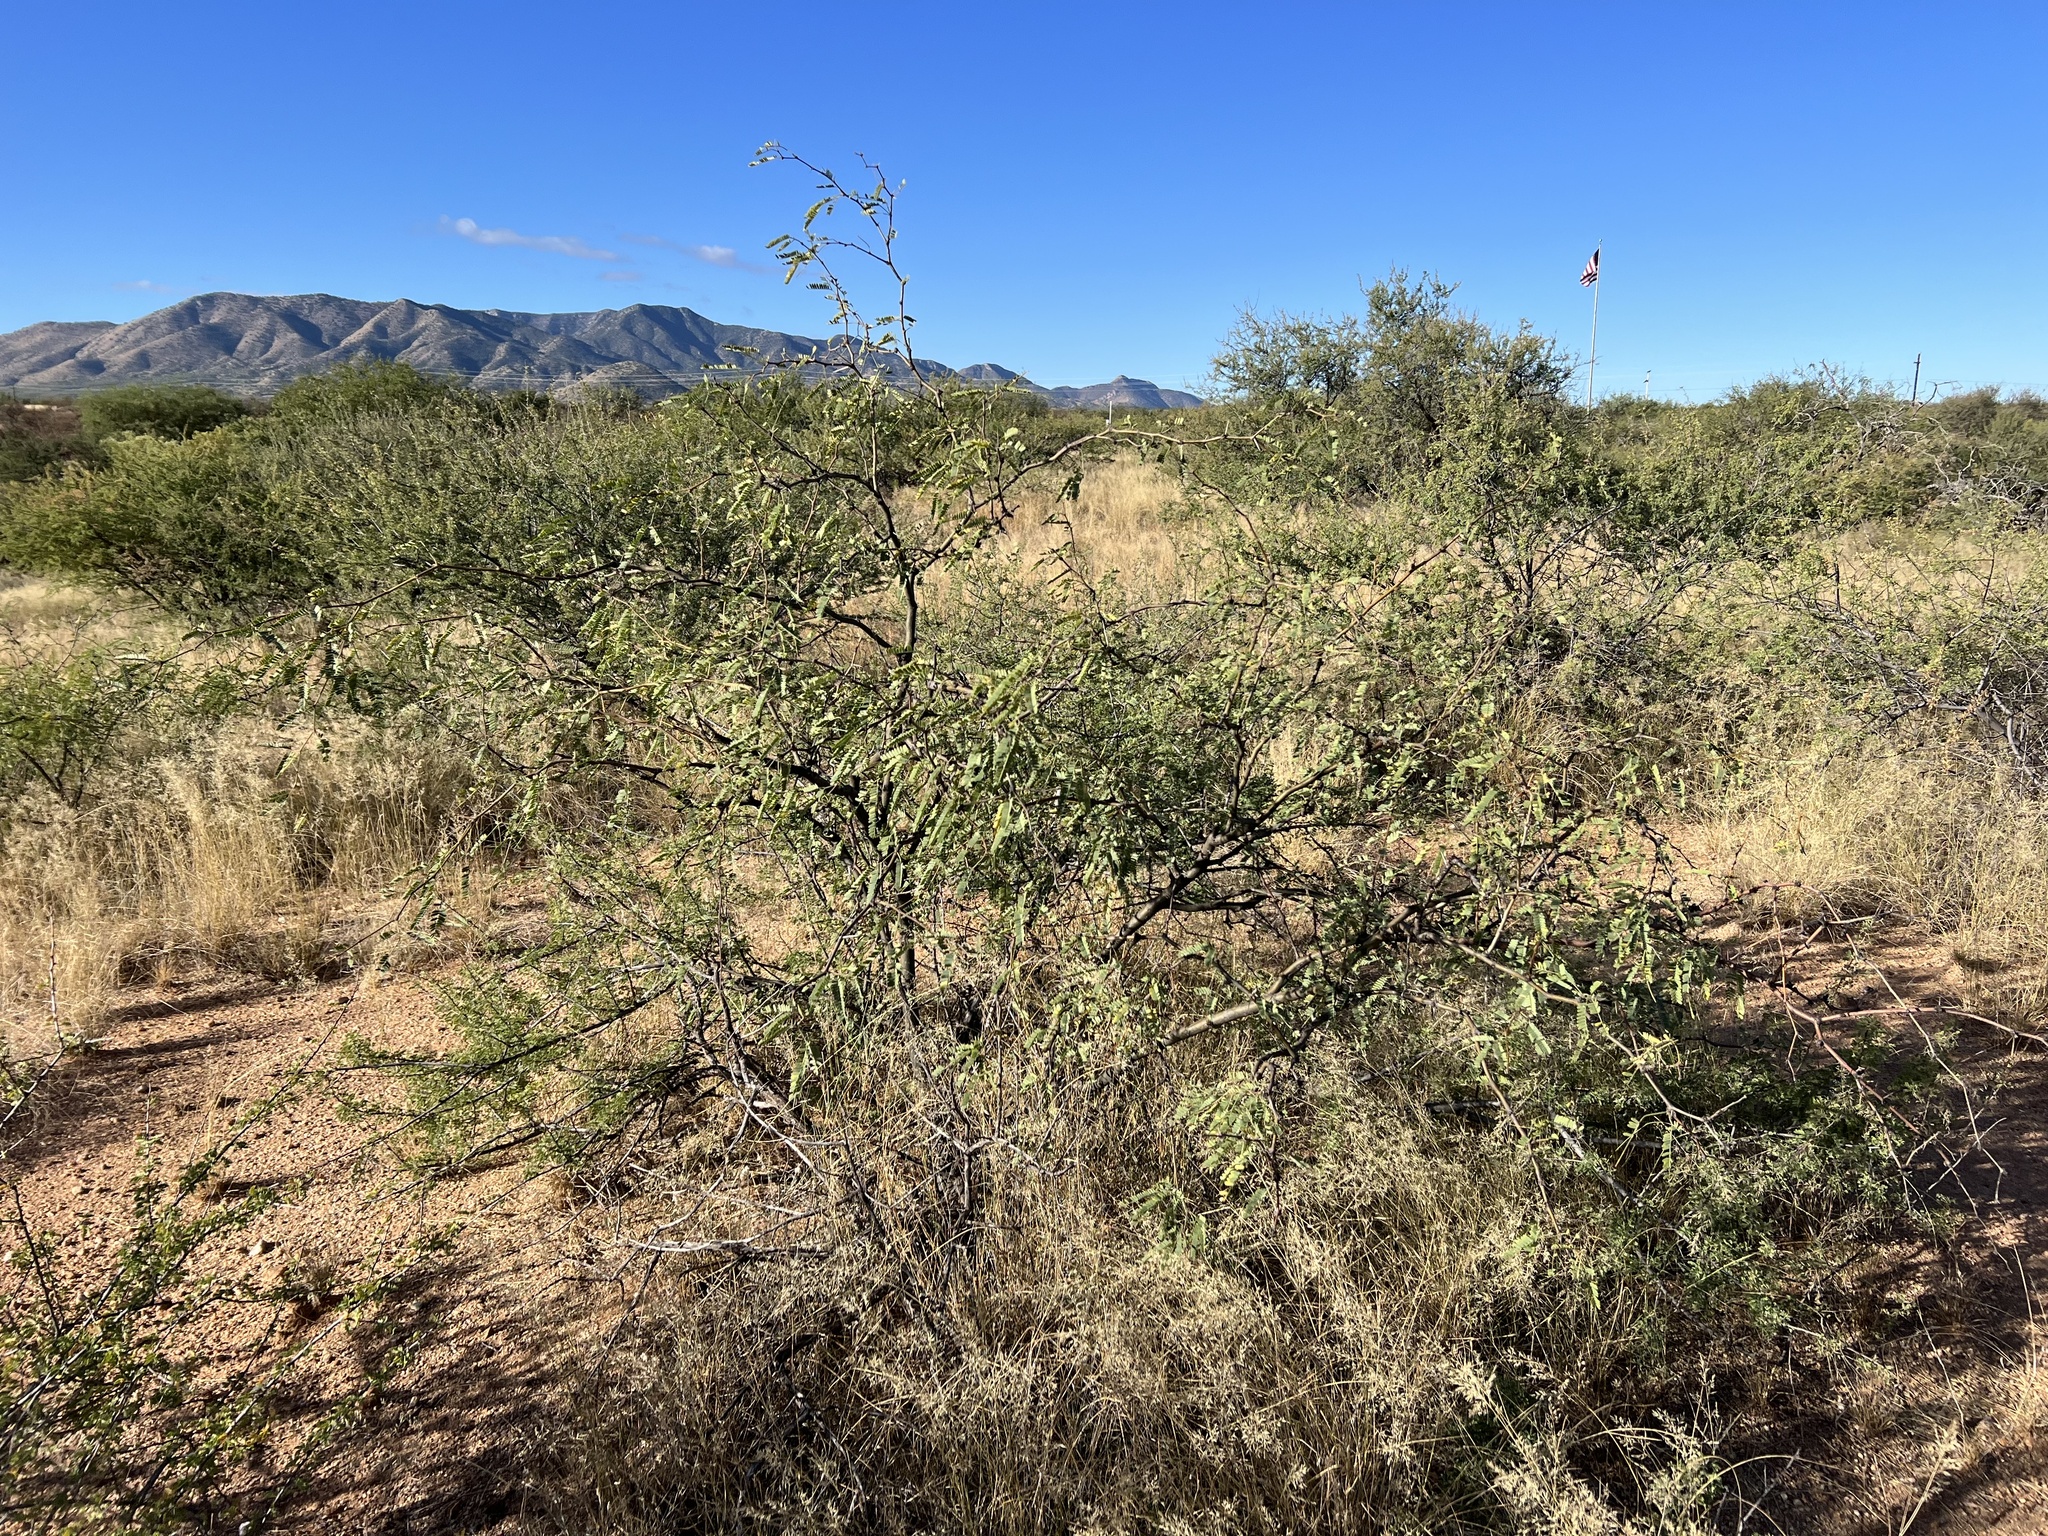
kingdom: Plantae
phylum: Tracheophyta
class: Magnoliopsida
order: Fabales
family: Fabaceae
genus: Prosopis
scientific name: Prosopis velutina
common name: Velvet mesquite
